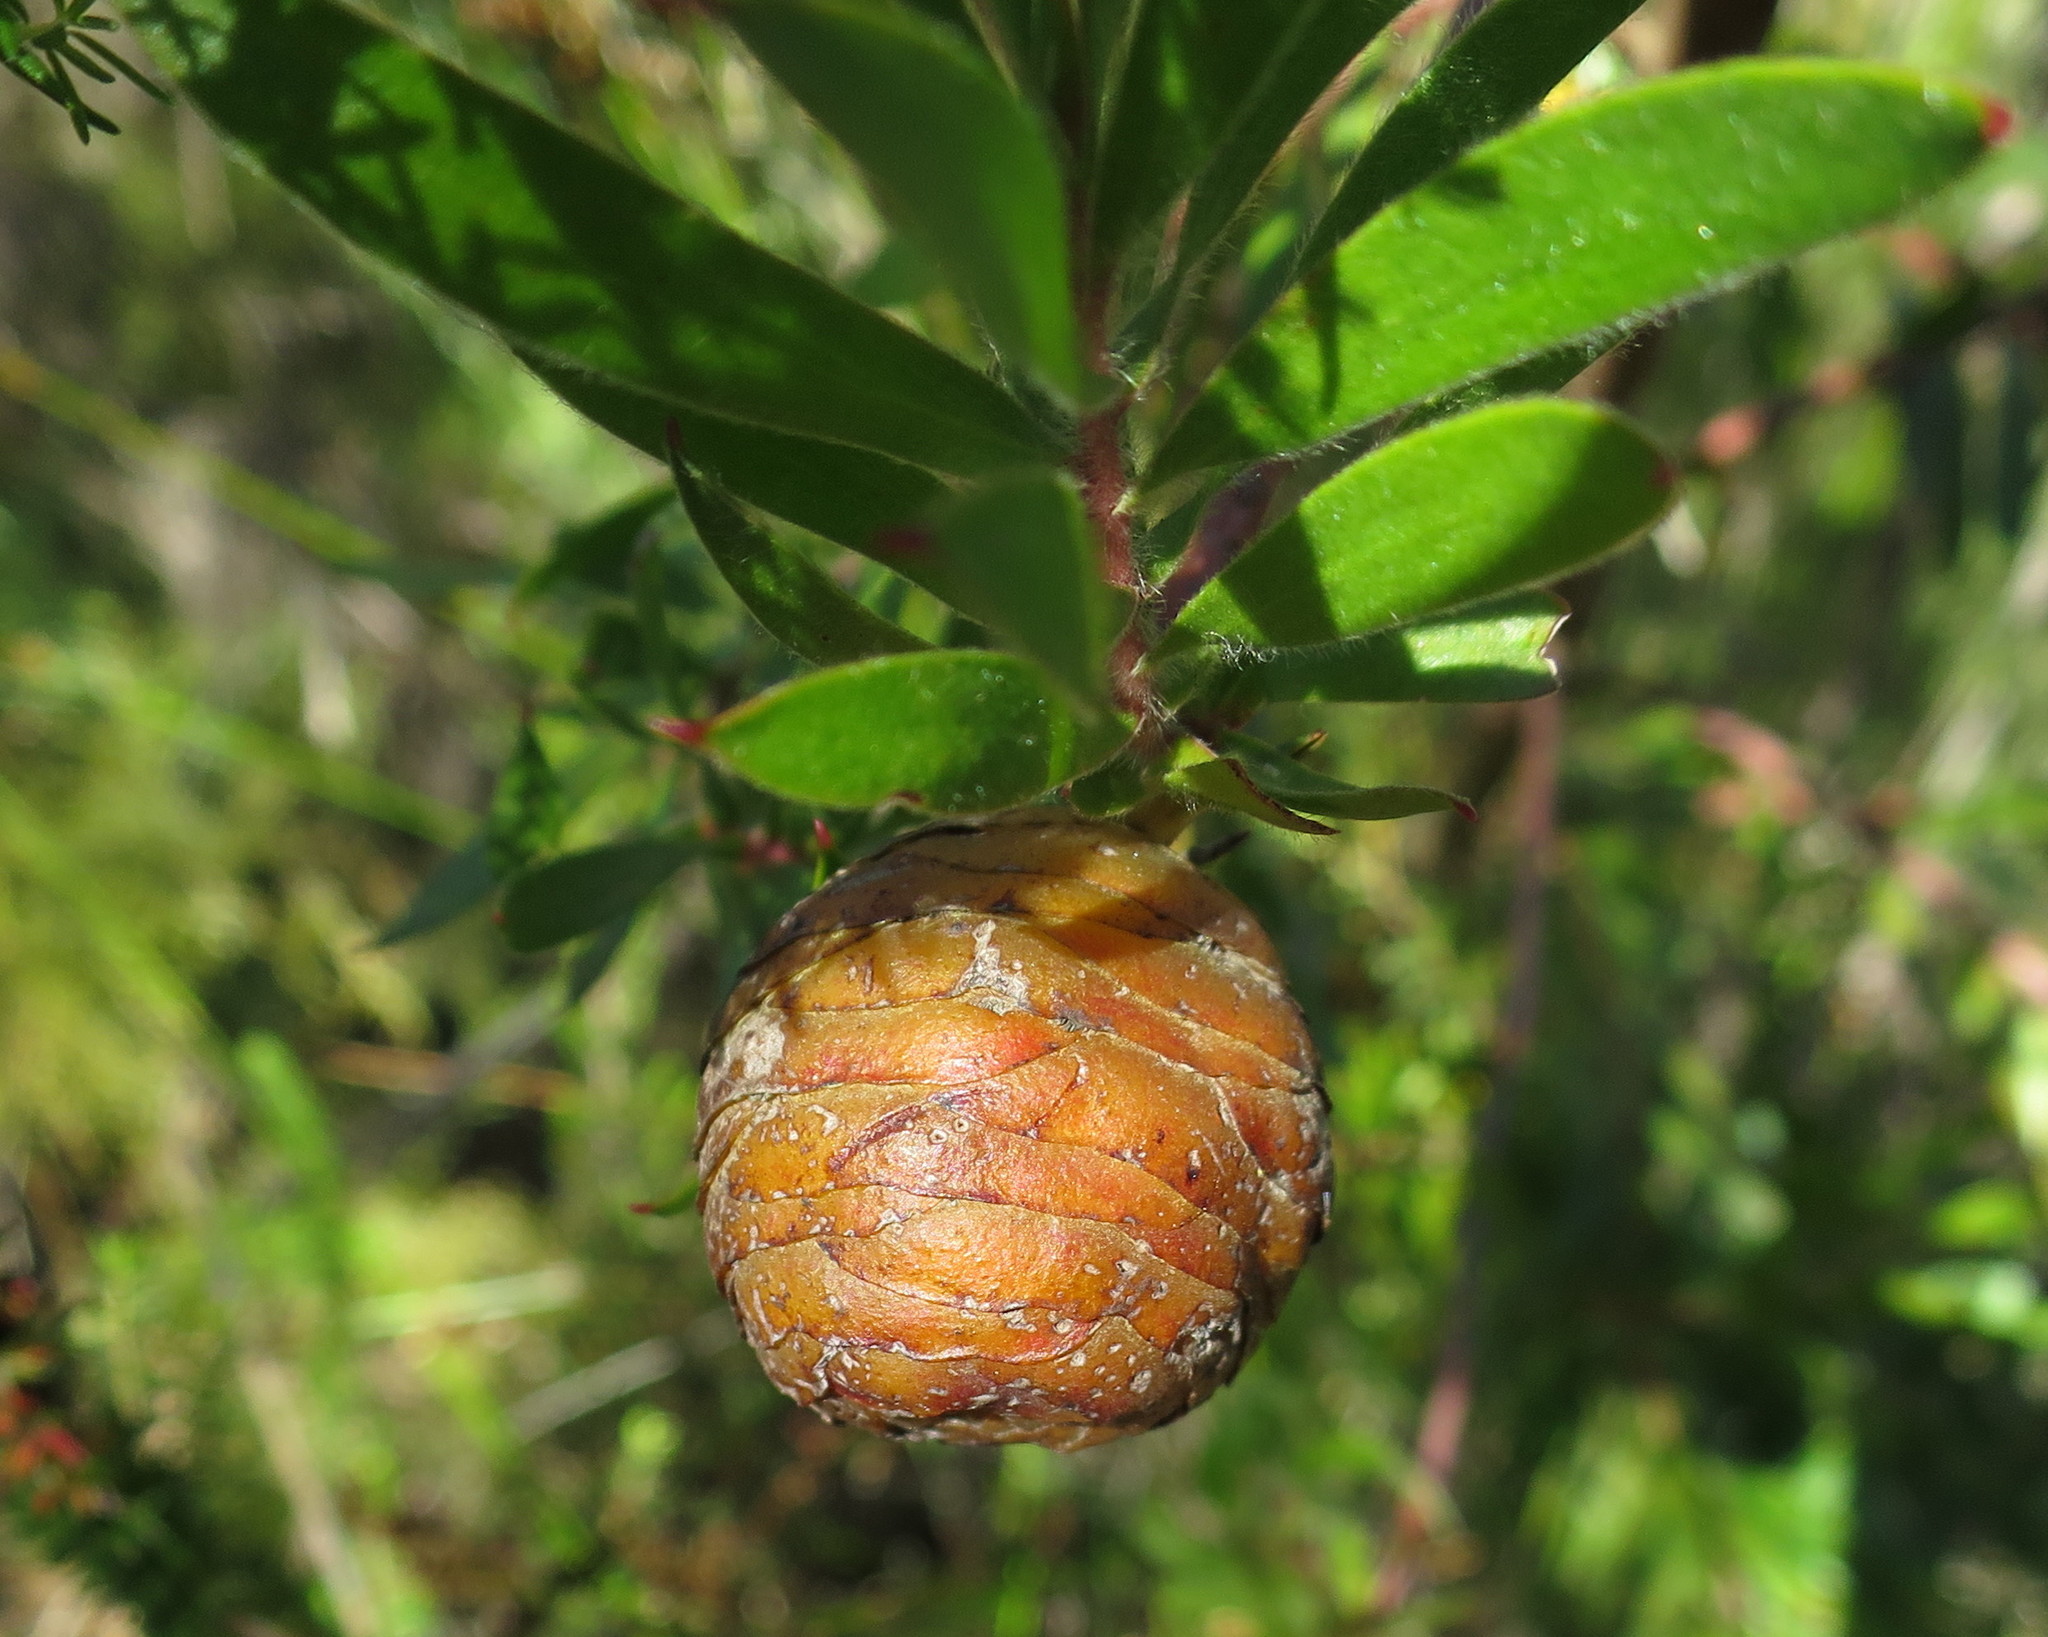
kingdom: Plantae
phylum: Tracheophyta
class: Magnoliopsida
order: Proteales
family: Proteaceae
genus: Leucadendron
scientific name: Leucadendron conicum
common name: Garden route conebush
